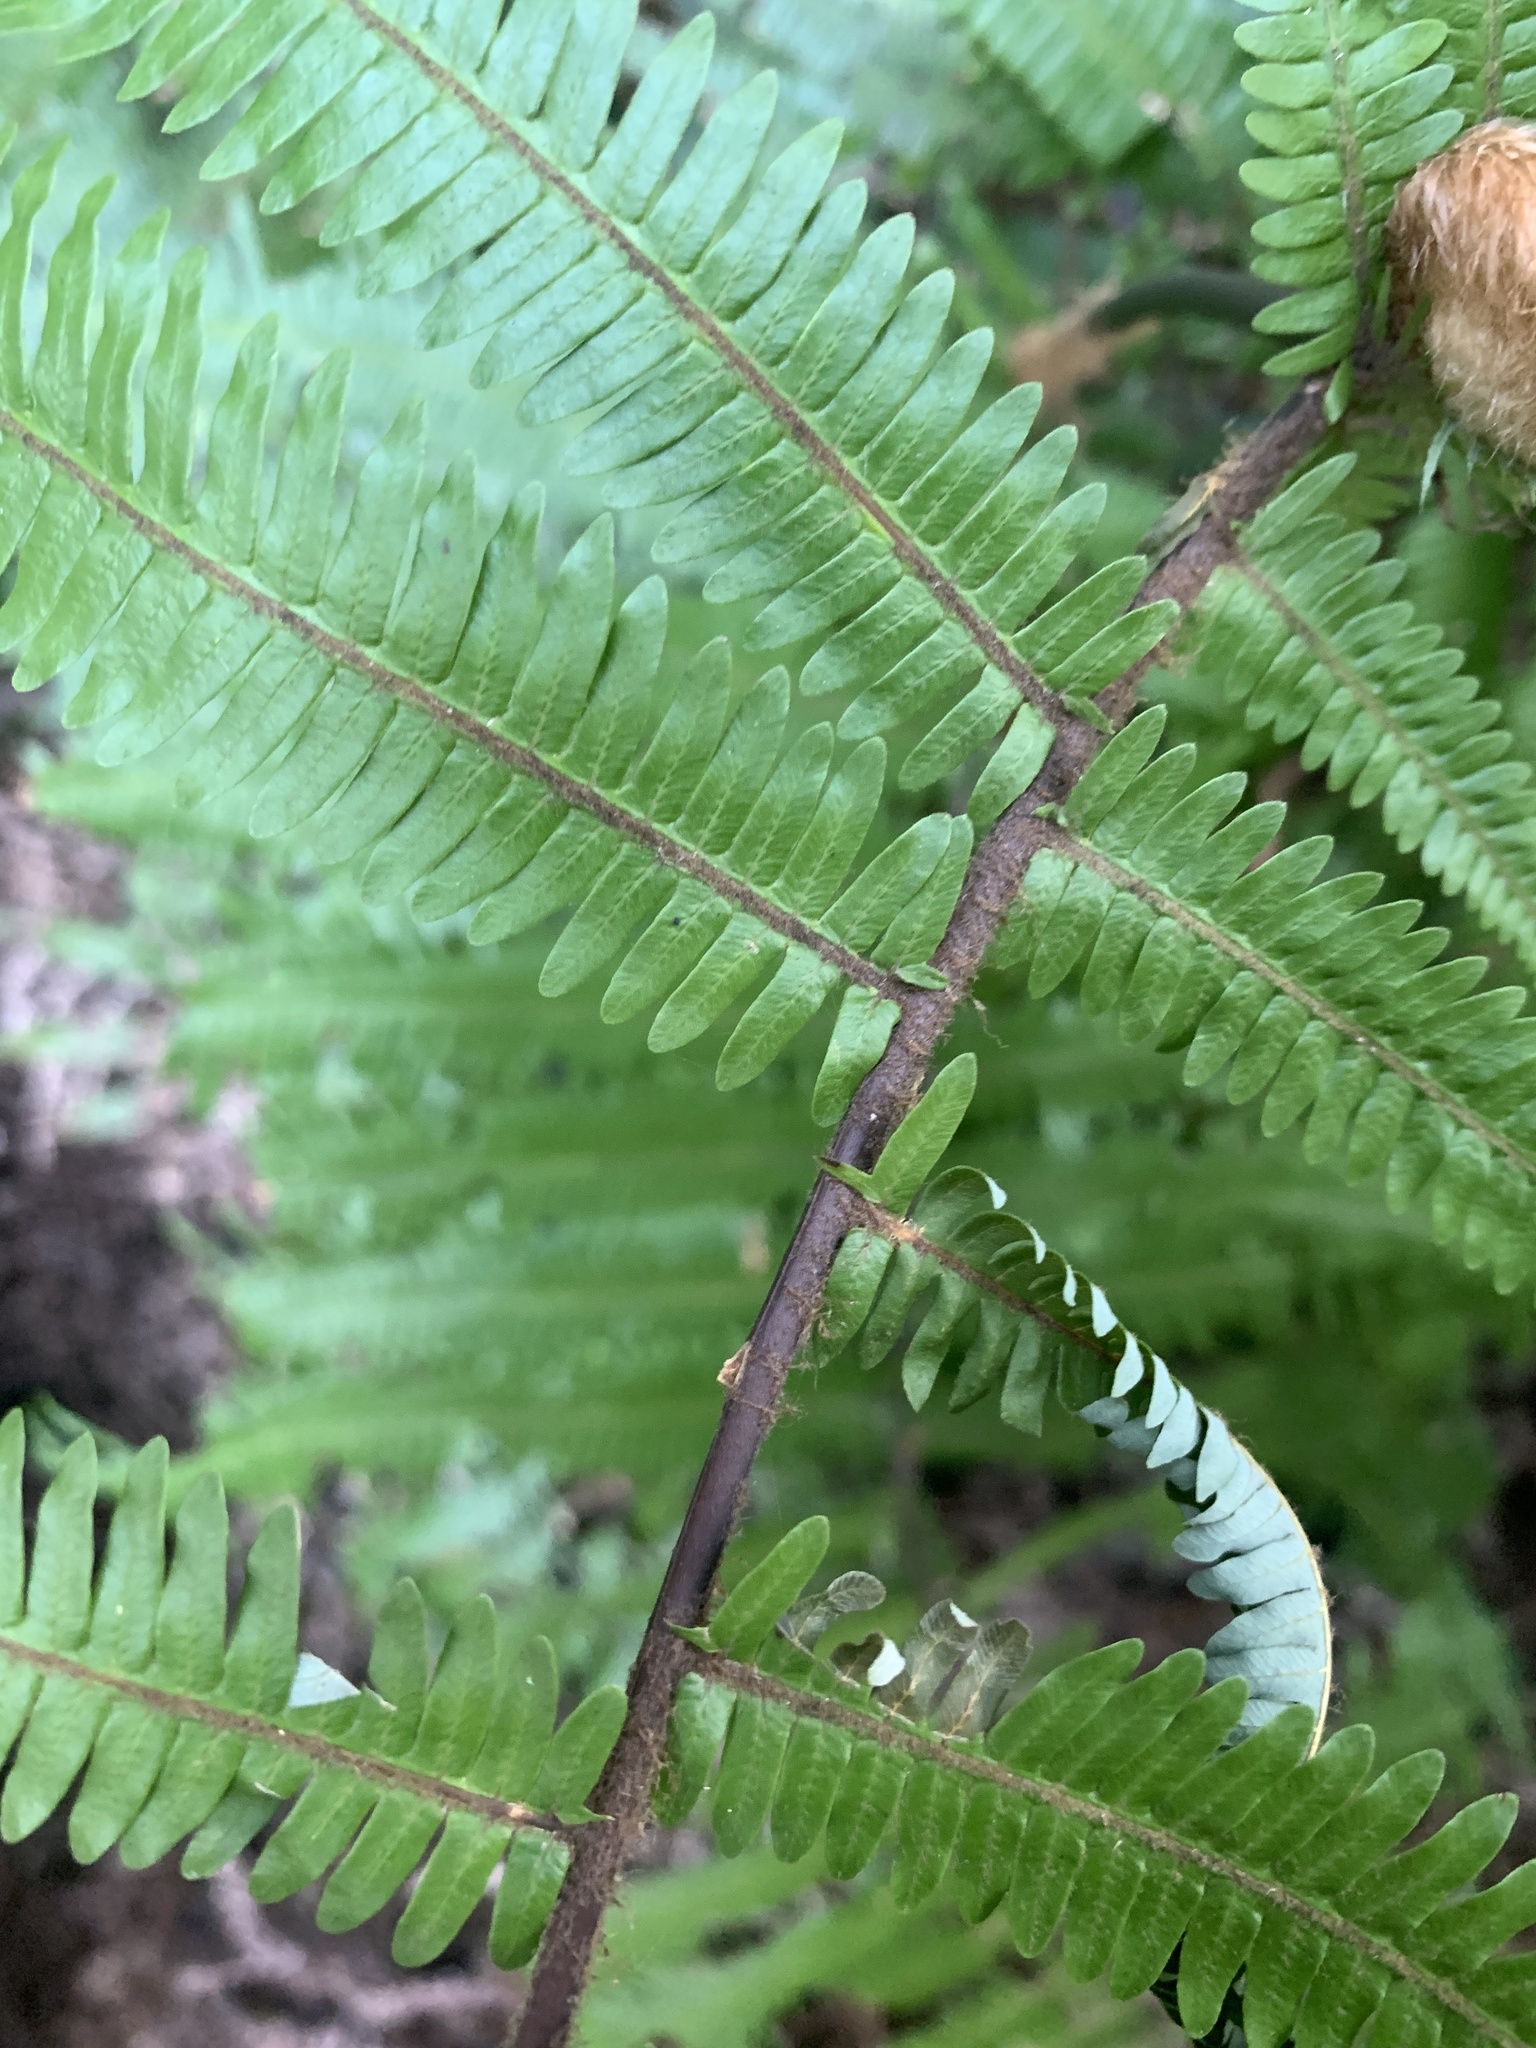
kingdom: Plantae
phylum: Tracheophyta
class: Polypodiopsida
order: Gleicheniales
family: Gleicheniaceae
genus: Diplopterygium
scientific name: Diplopterygium chinense
